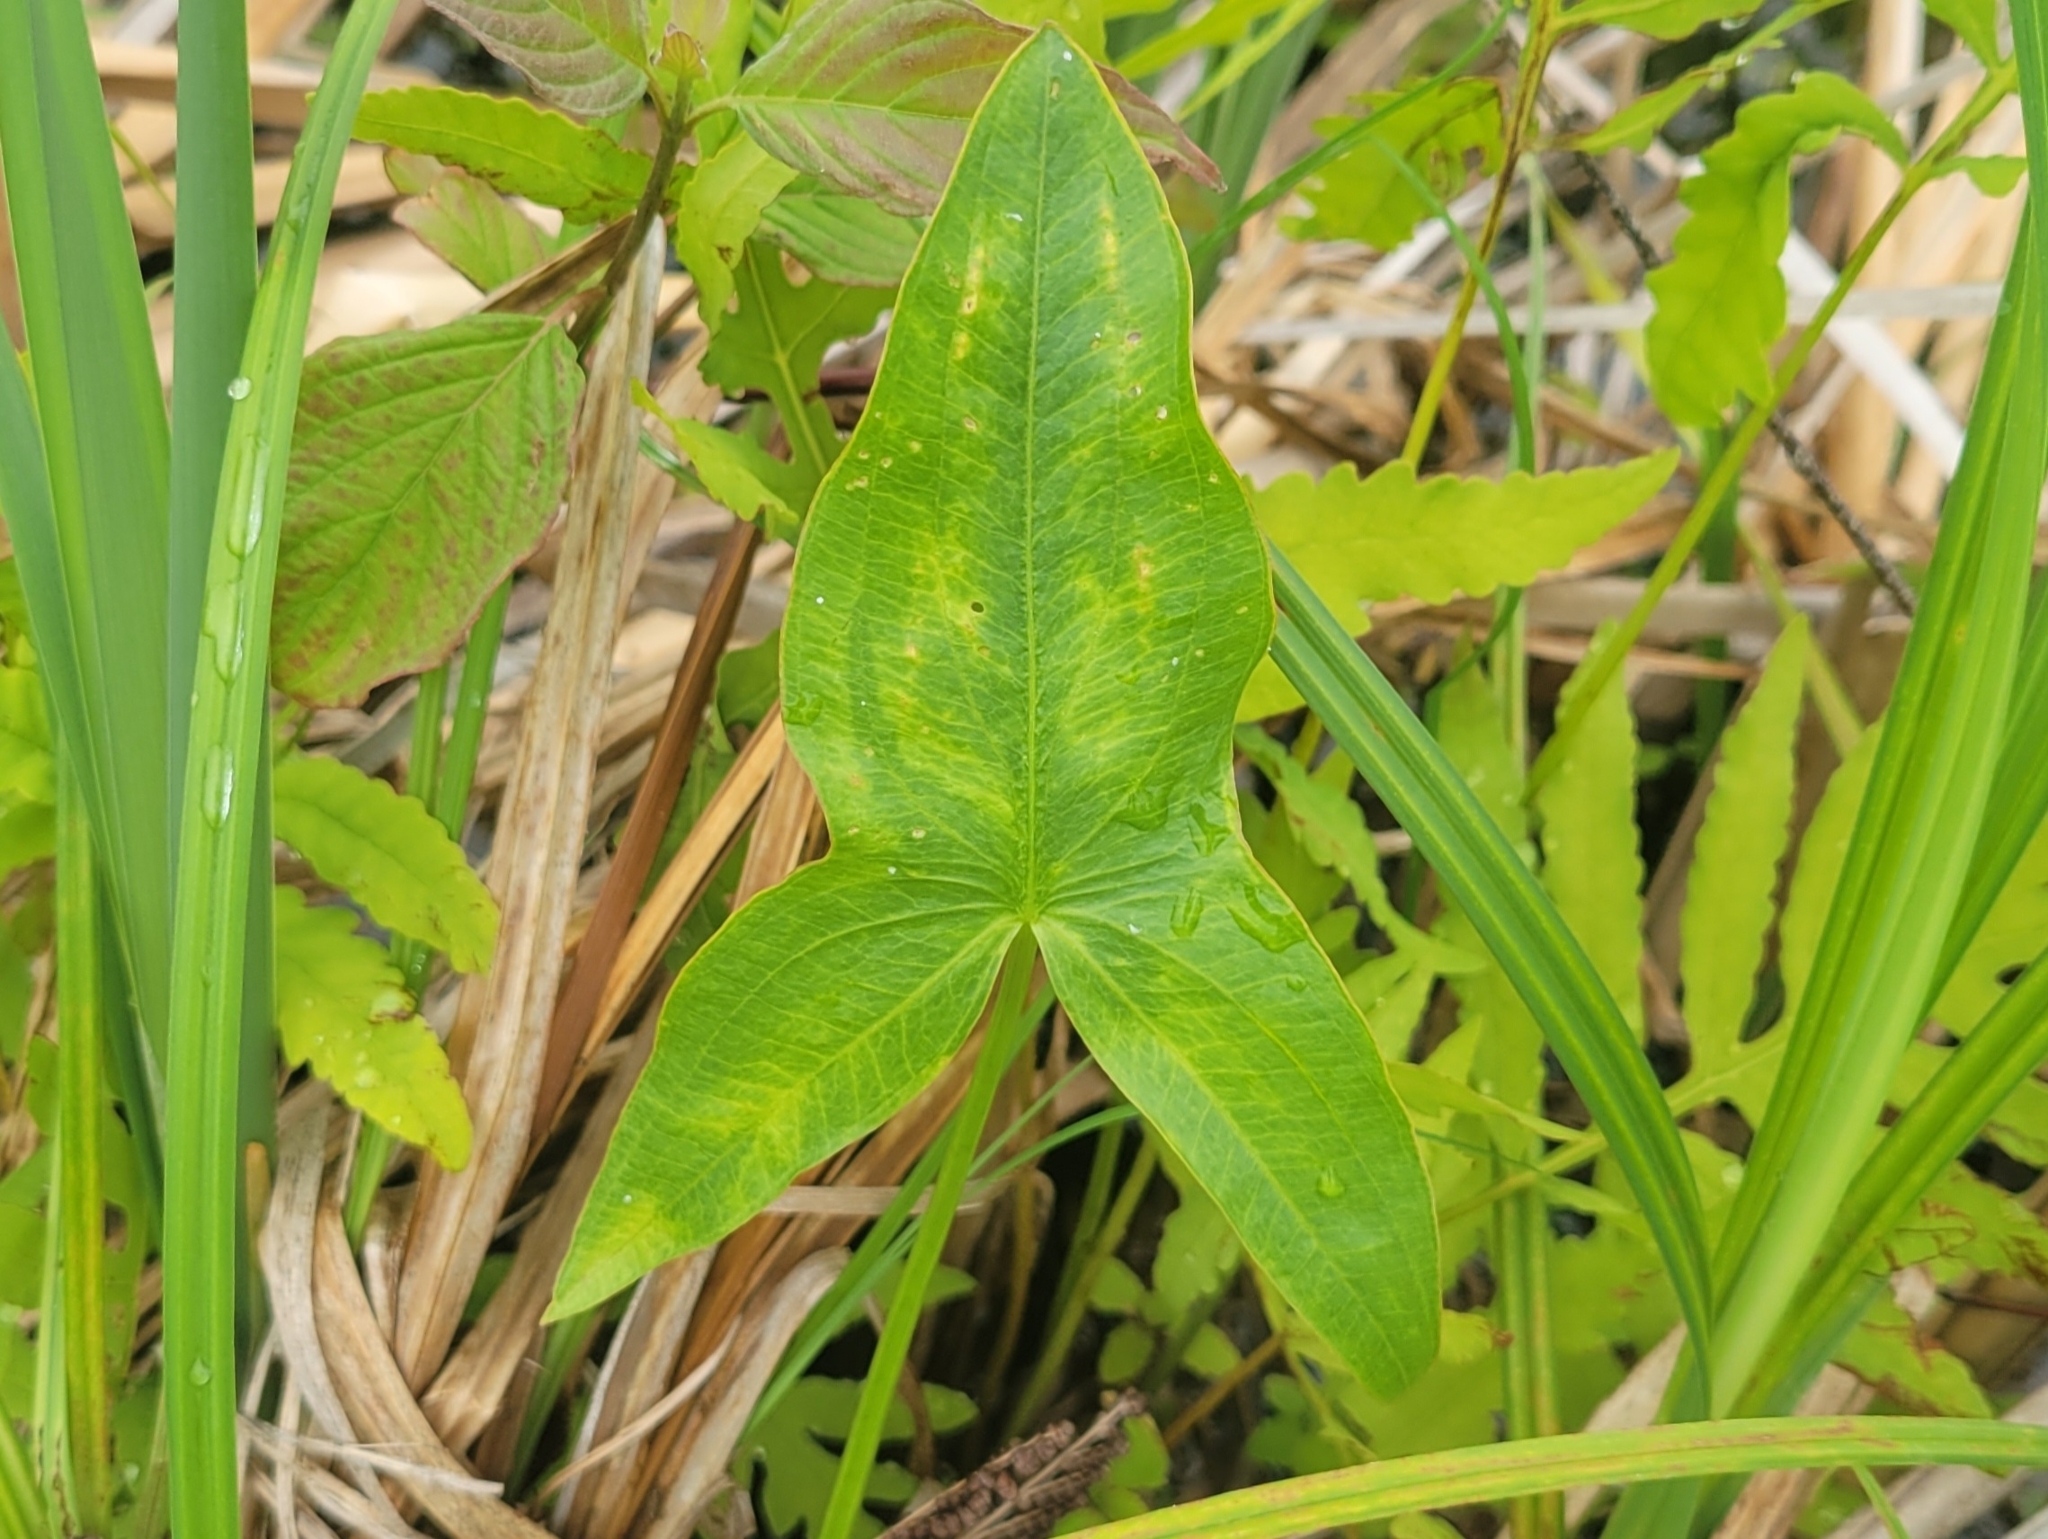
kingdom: Plantae
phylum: Tracheophyta
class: Liliopsida
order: Alismatales
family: Alismataceae
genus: Sagittaria
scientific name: Sagittaria latifolia
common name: Duck-potato
